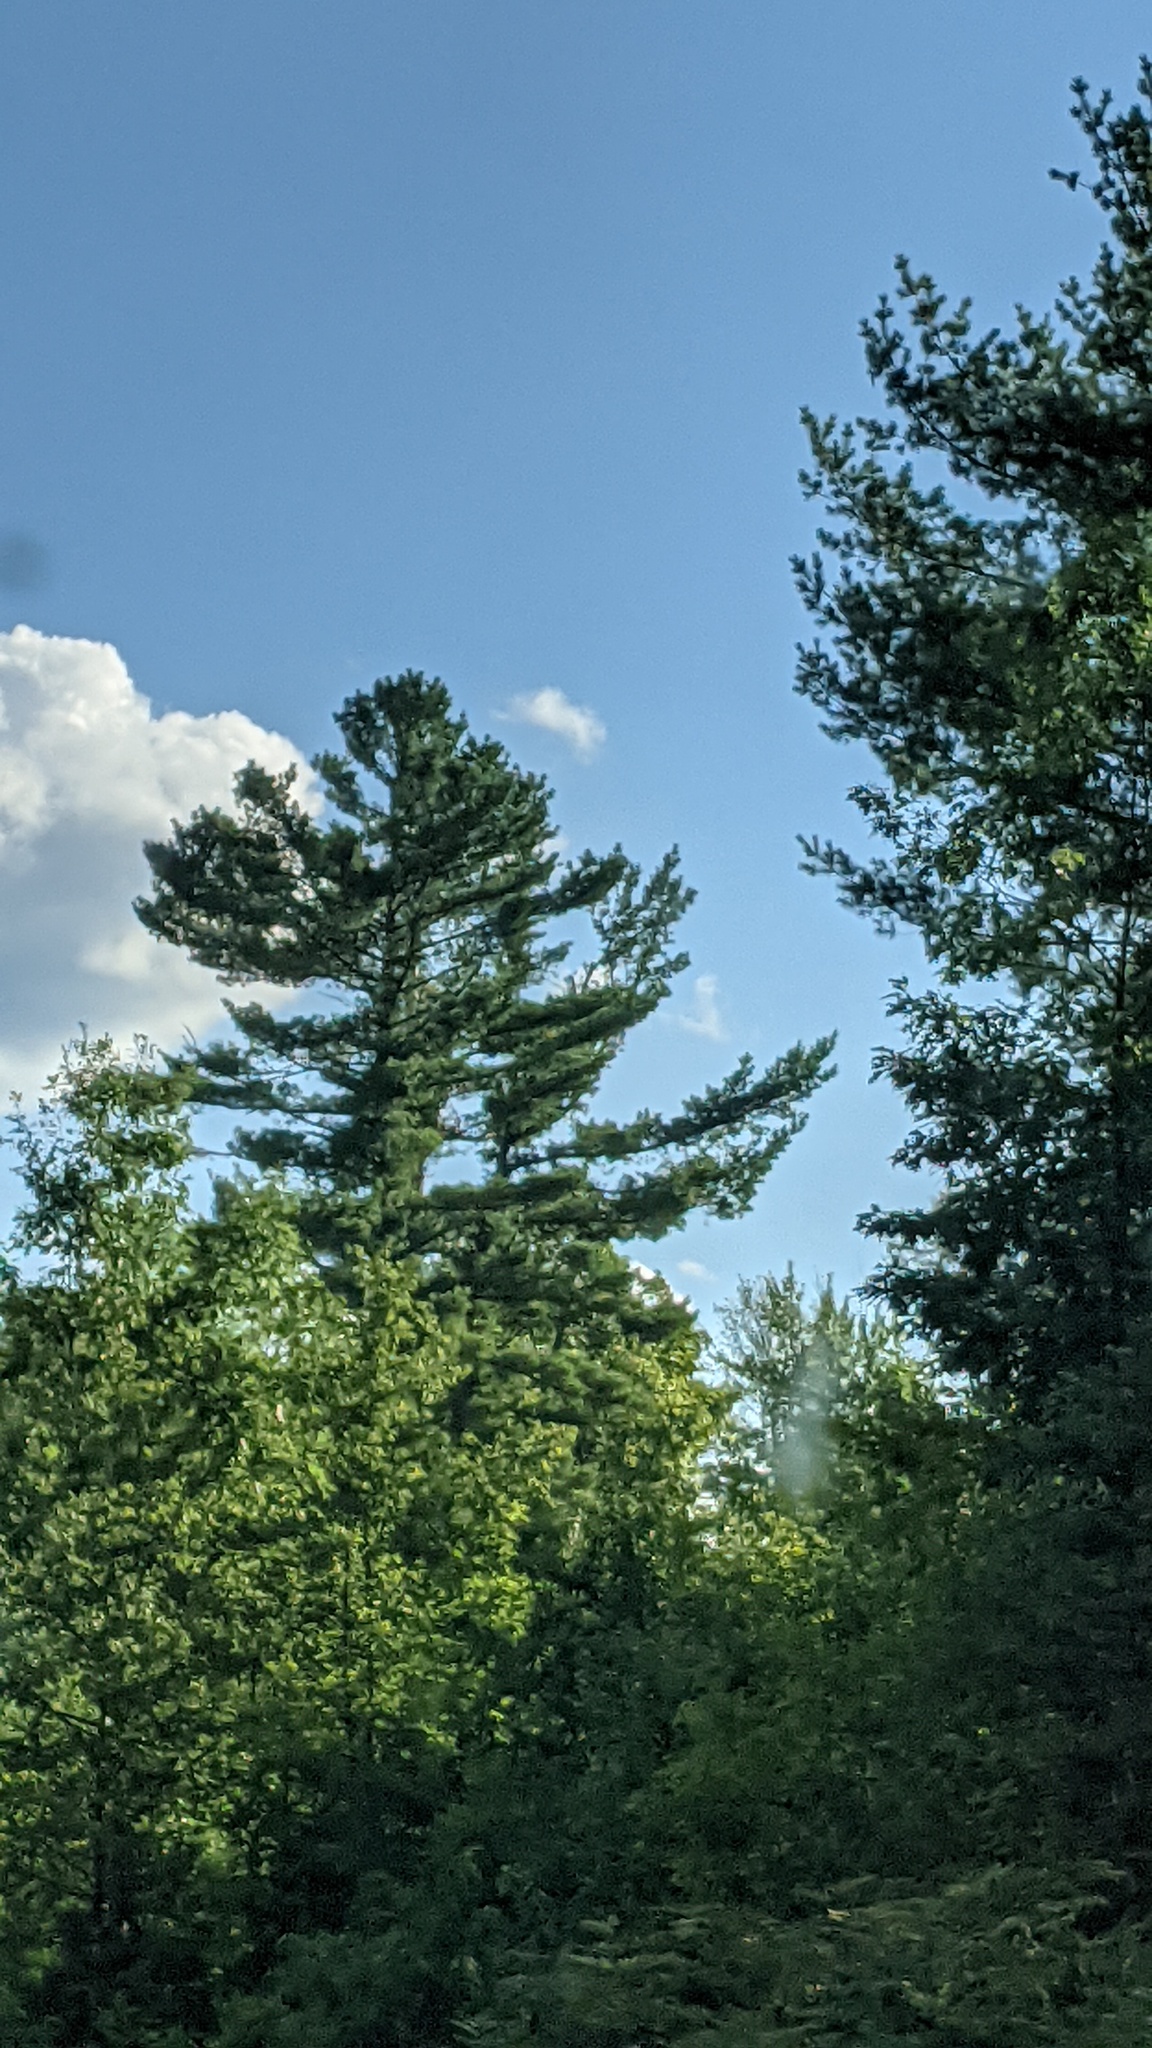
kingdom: Plantae
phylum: Tracheophyta
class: Pinopsida
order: Pinales
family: Pinaceae
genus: Pinus
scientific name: Pinus strobus
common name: Weymouth pine
